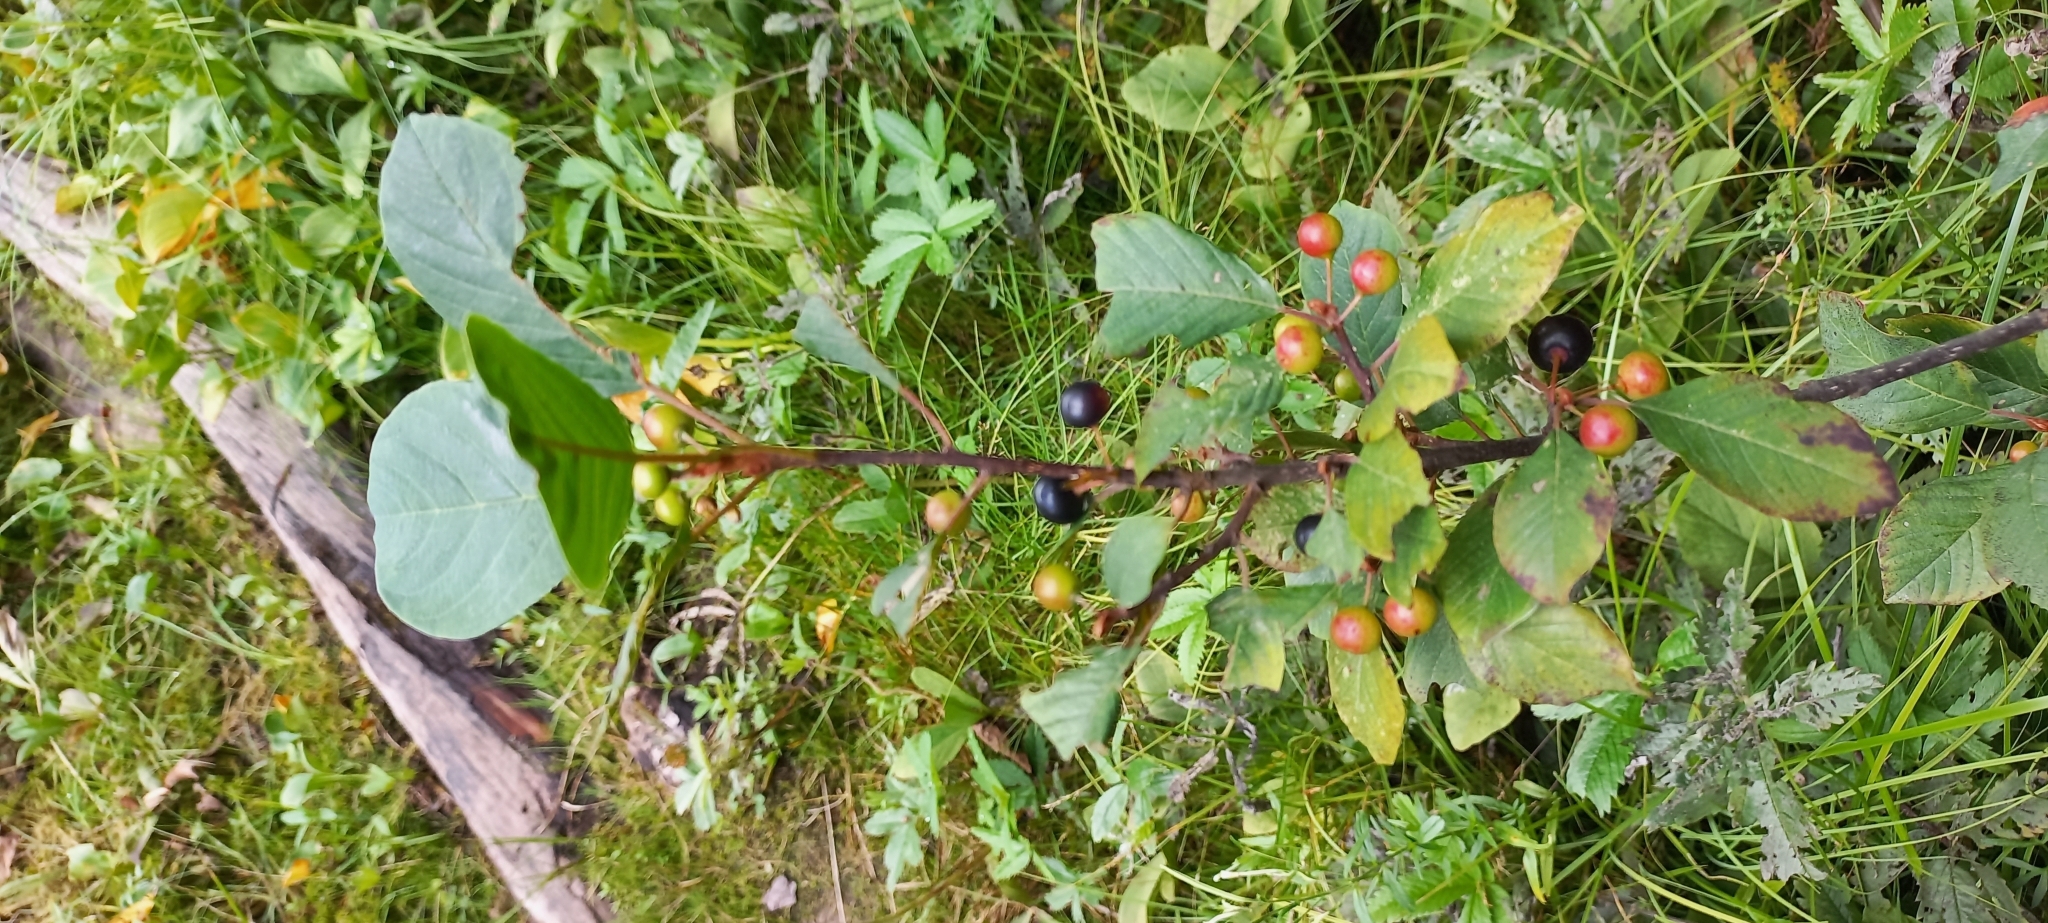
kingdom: Plantae
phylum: Tracheophyta
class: Magnoliopsida
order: Rosales
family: Rhamnaceae
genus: Frangula
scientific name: Frangula alnus
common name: Alder buckthorn
